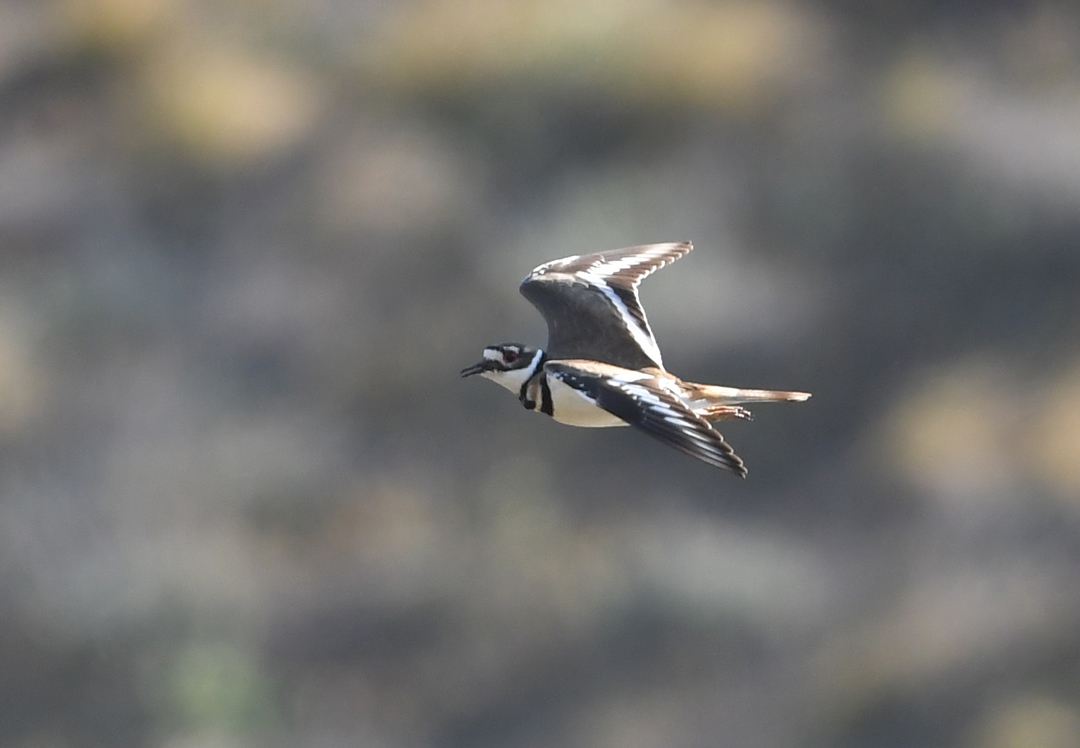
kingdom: Animalia
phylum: Chordata
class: Aves
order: Charadriiformes
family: Charadriidae
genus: Charadrius
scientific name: Charadrius vociferus
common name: Killdeer
